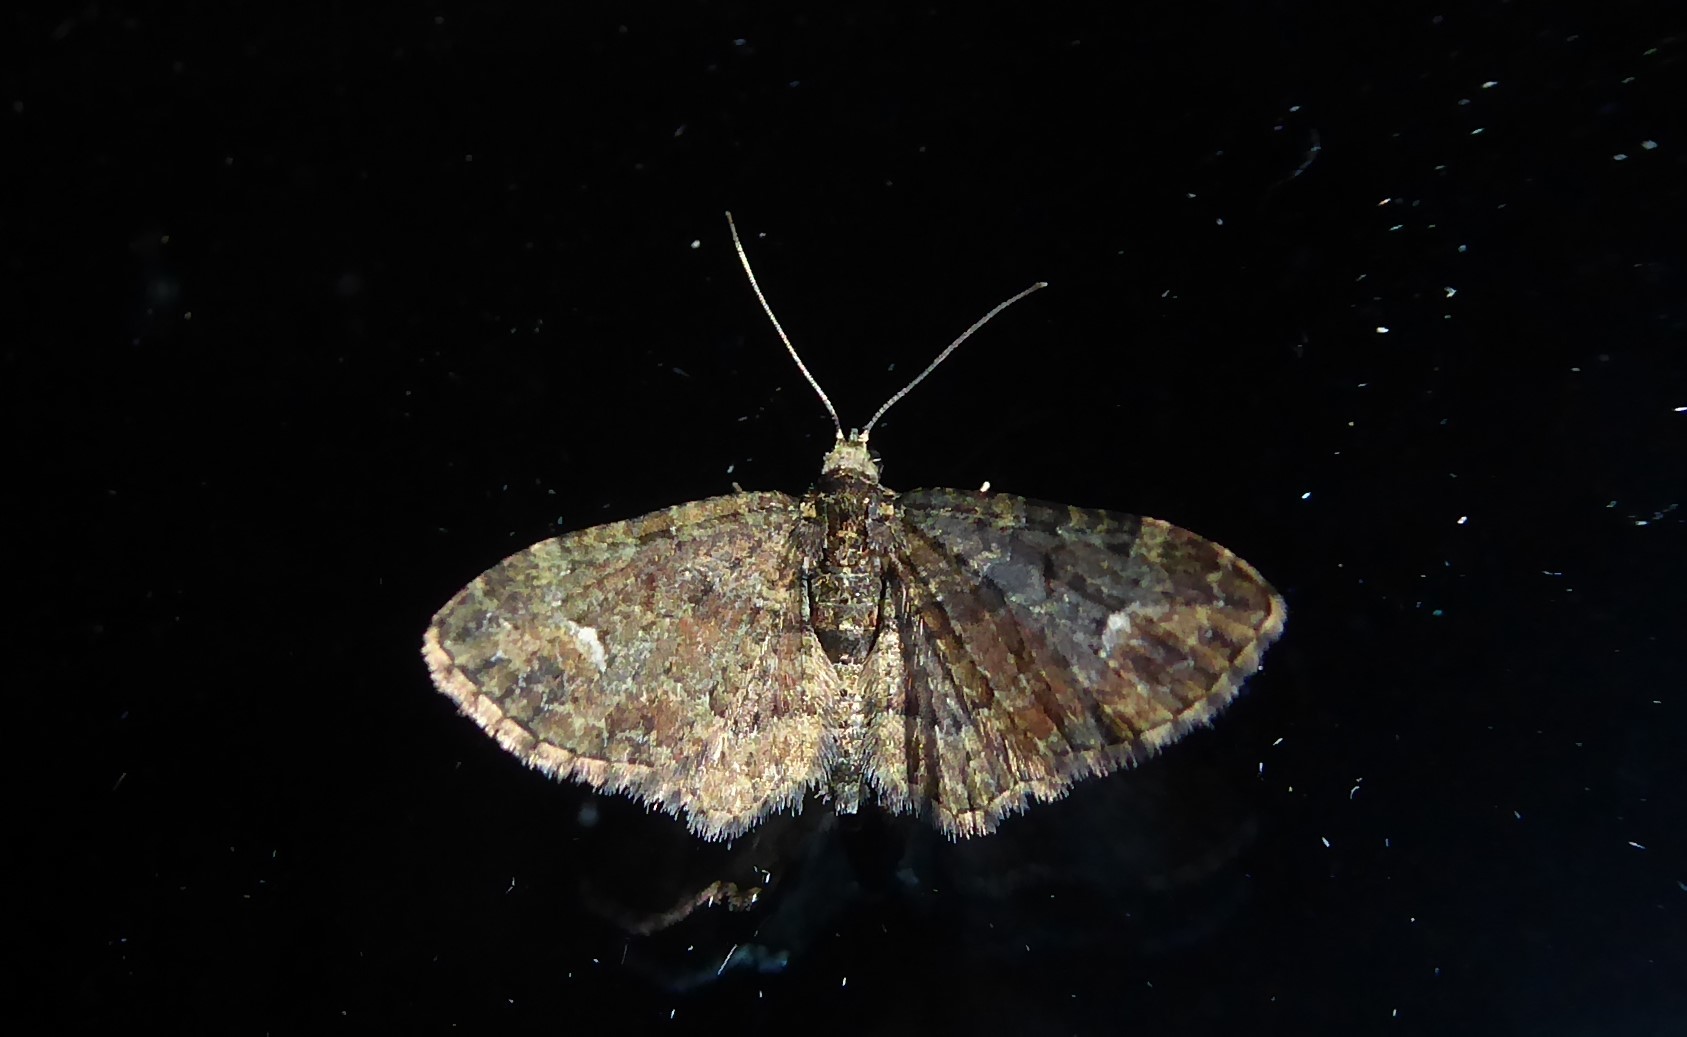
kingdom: Animalia
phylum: Arthropoda
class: Insecta
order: Lepidoptera
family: Geometridae
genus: Pasiphilodes
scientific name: Pasiphilodes testulata
